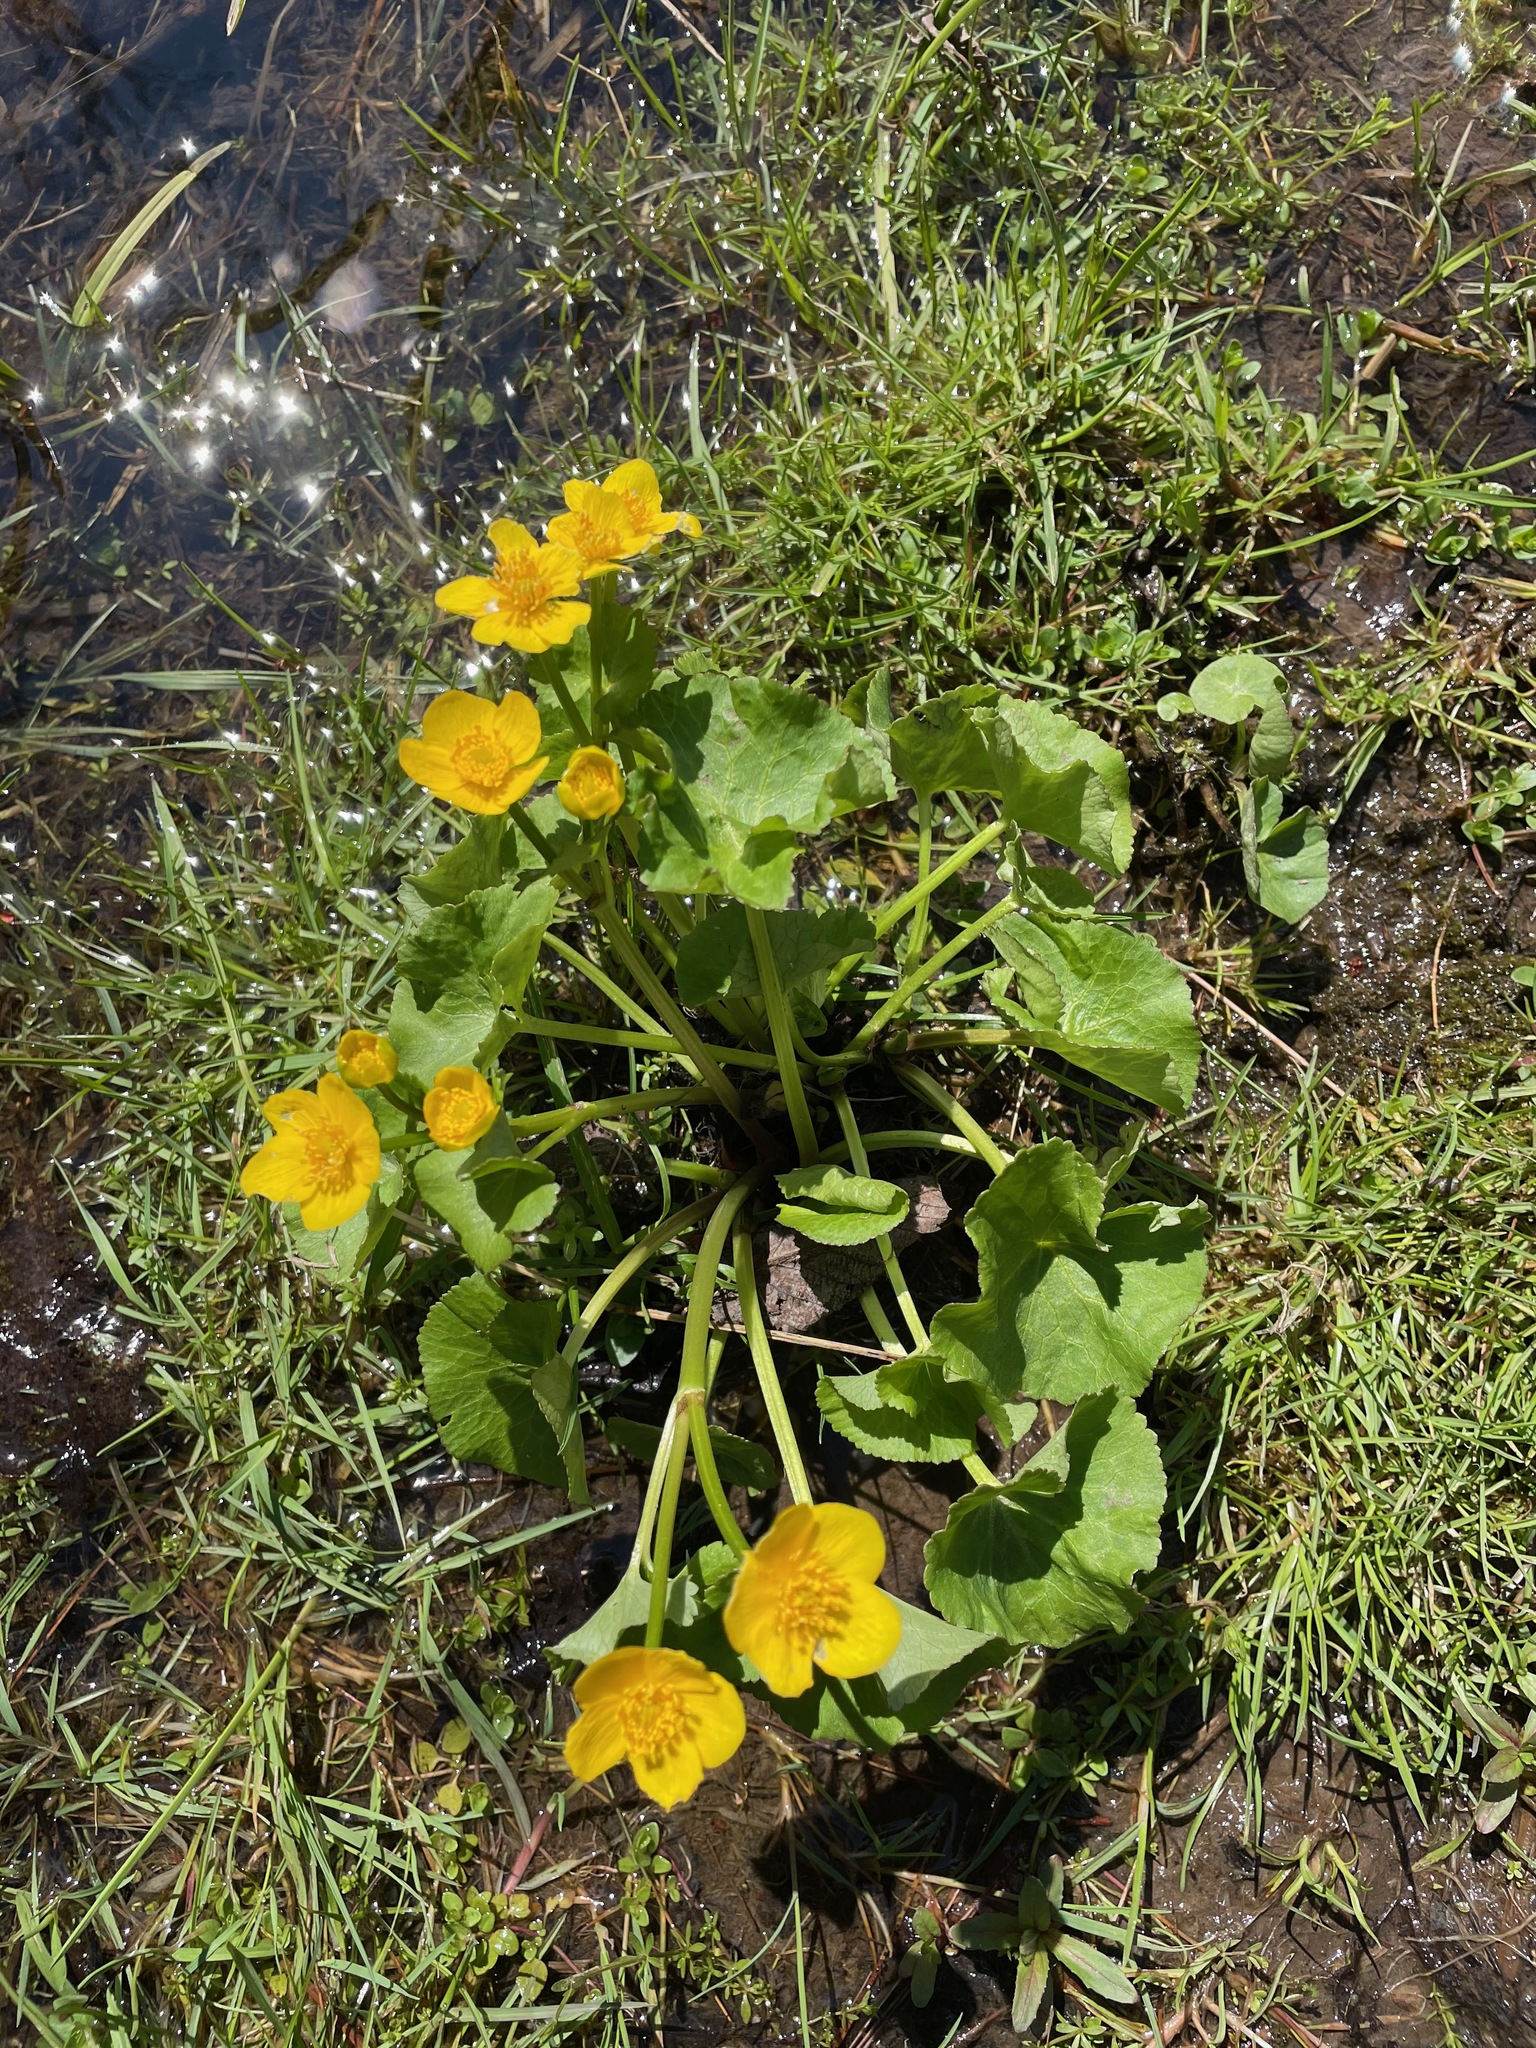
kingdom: Plantae
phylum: Tracheophyta
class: Magnoliopsida
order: Ranunculales
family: Ranunculaceae
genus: Caltha
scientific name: Caltha palustris
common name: Marsh marigold
